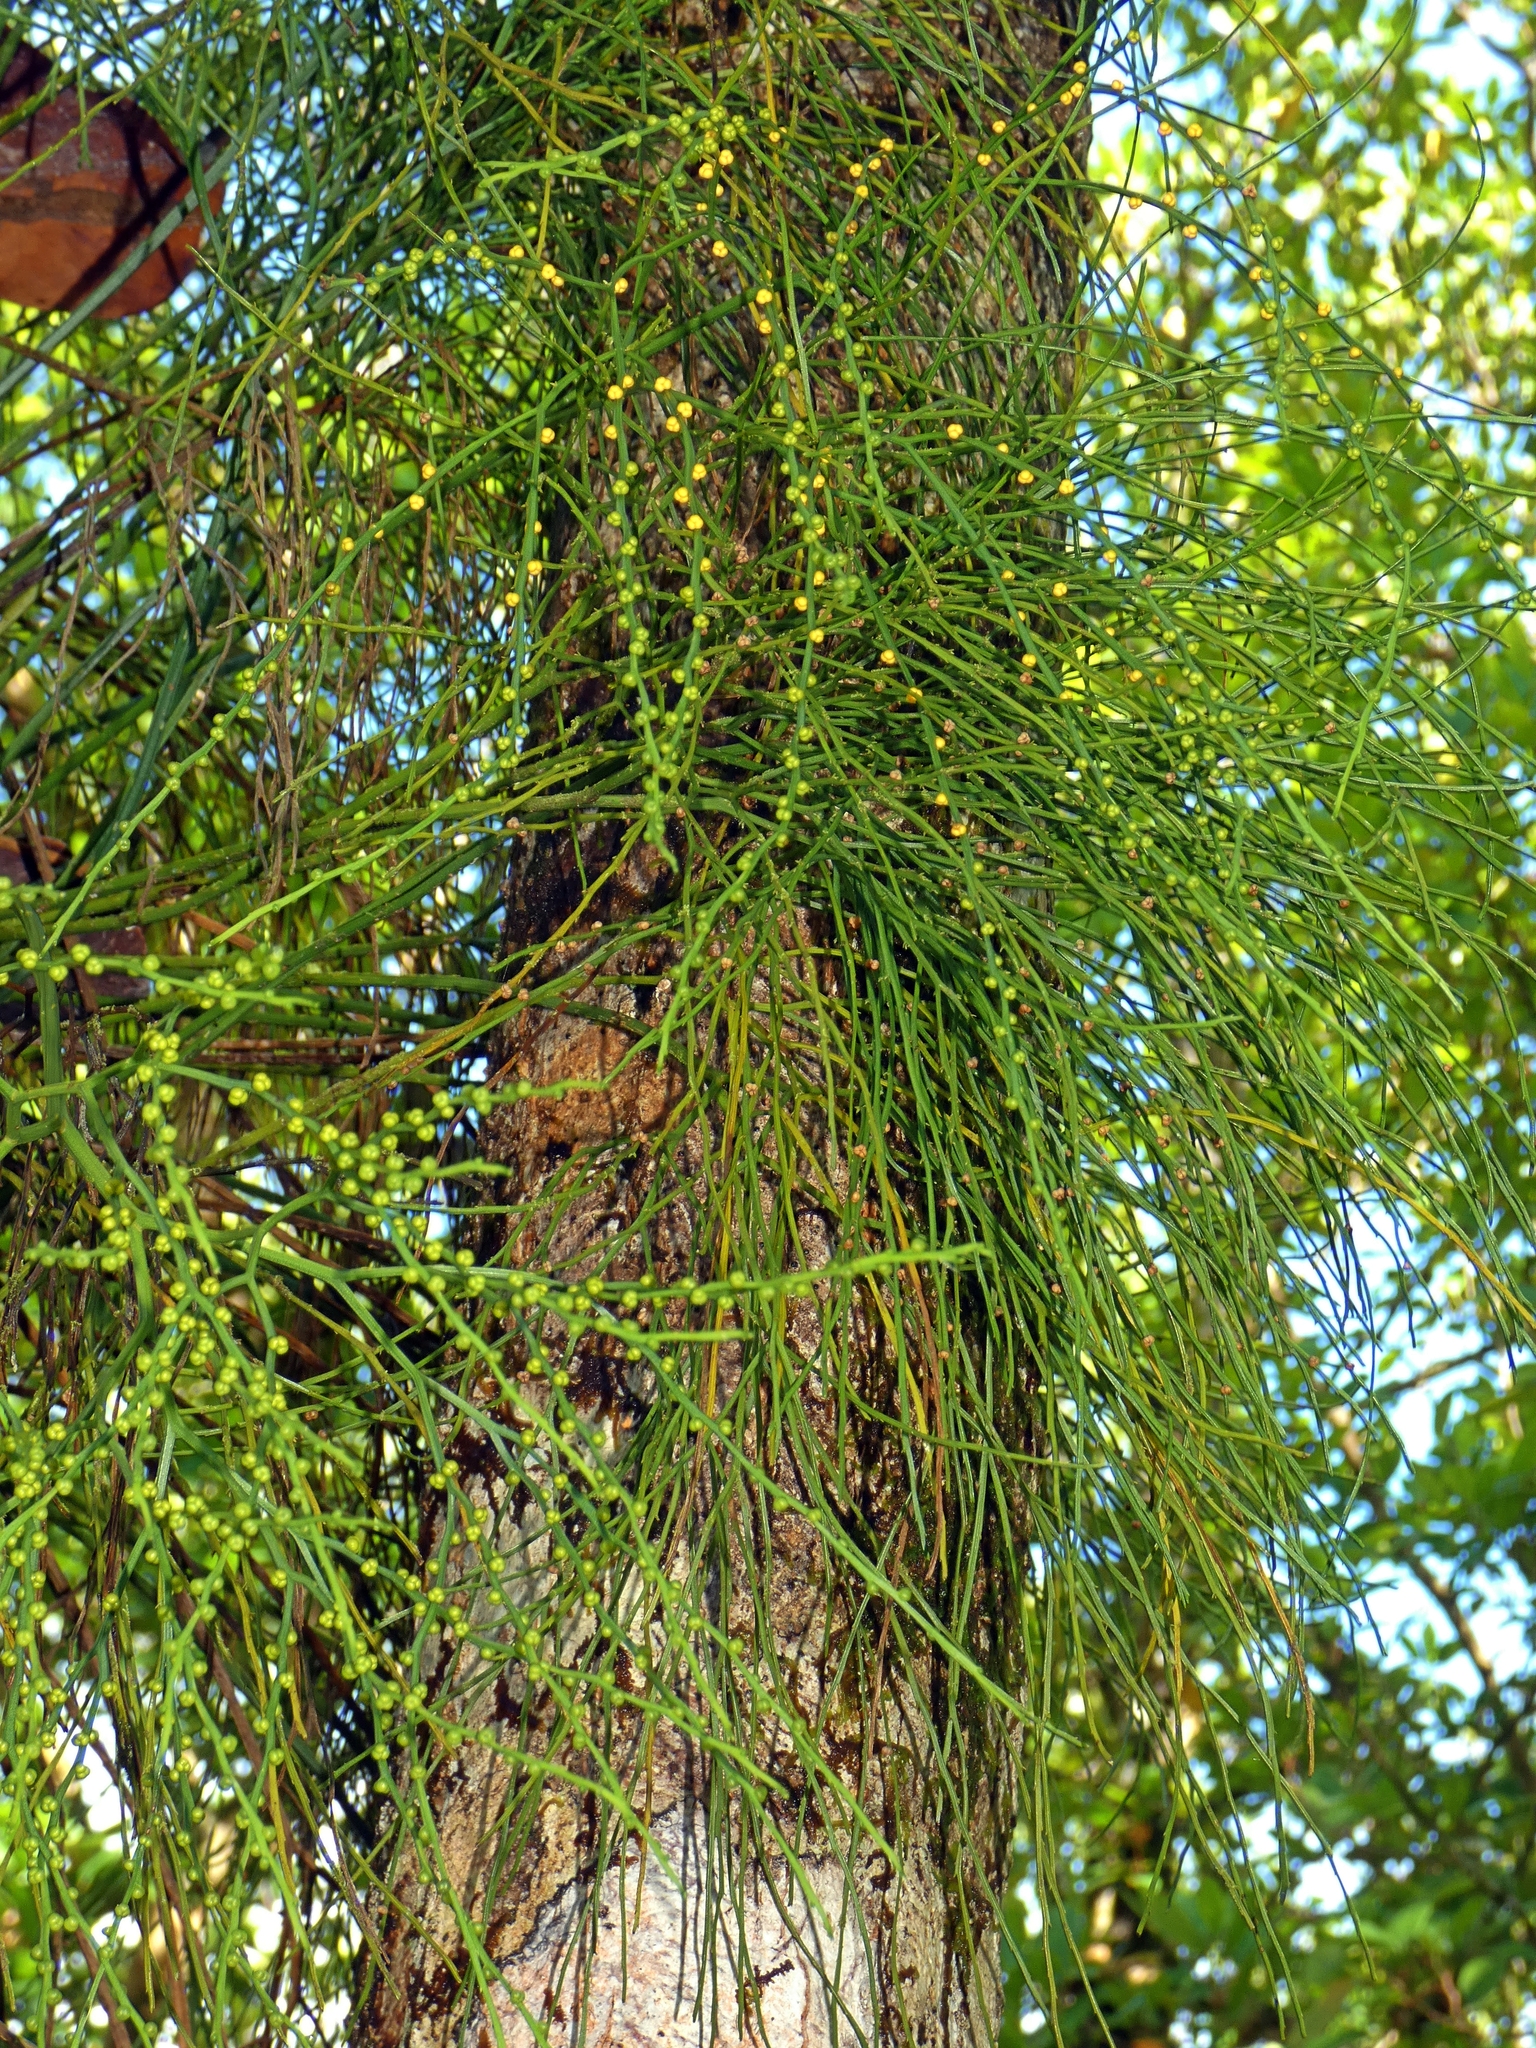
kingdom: Plantae
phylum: Tracheophyta
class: Polypodiopsida
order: Psilotales
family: Psilotaceae
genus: Psilotum
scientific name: Psilotum nudum
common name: Skeleton fork fern
